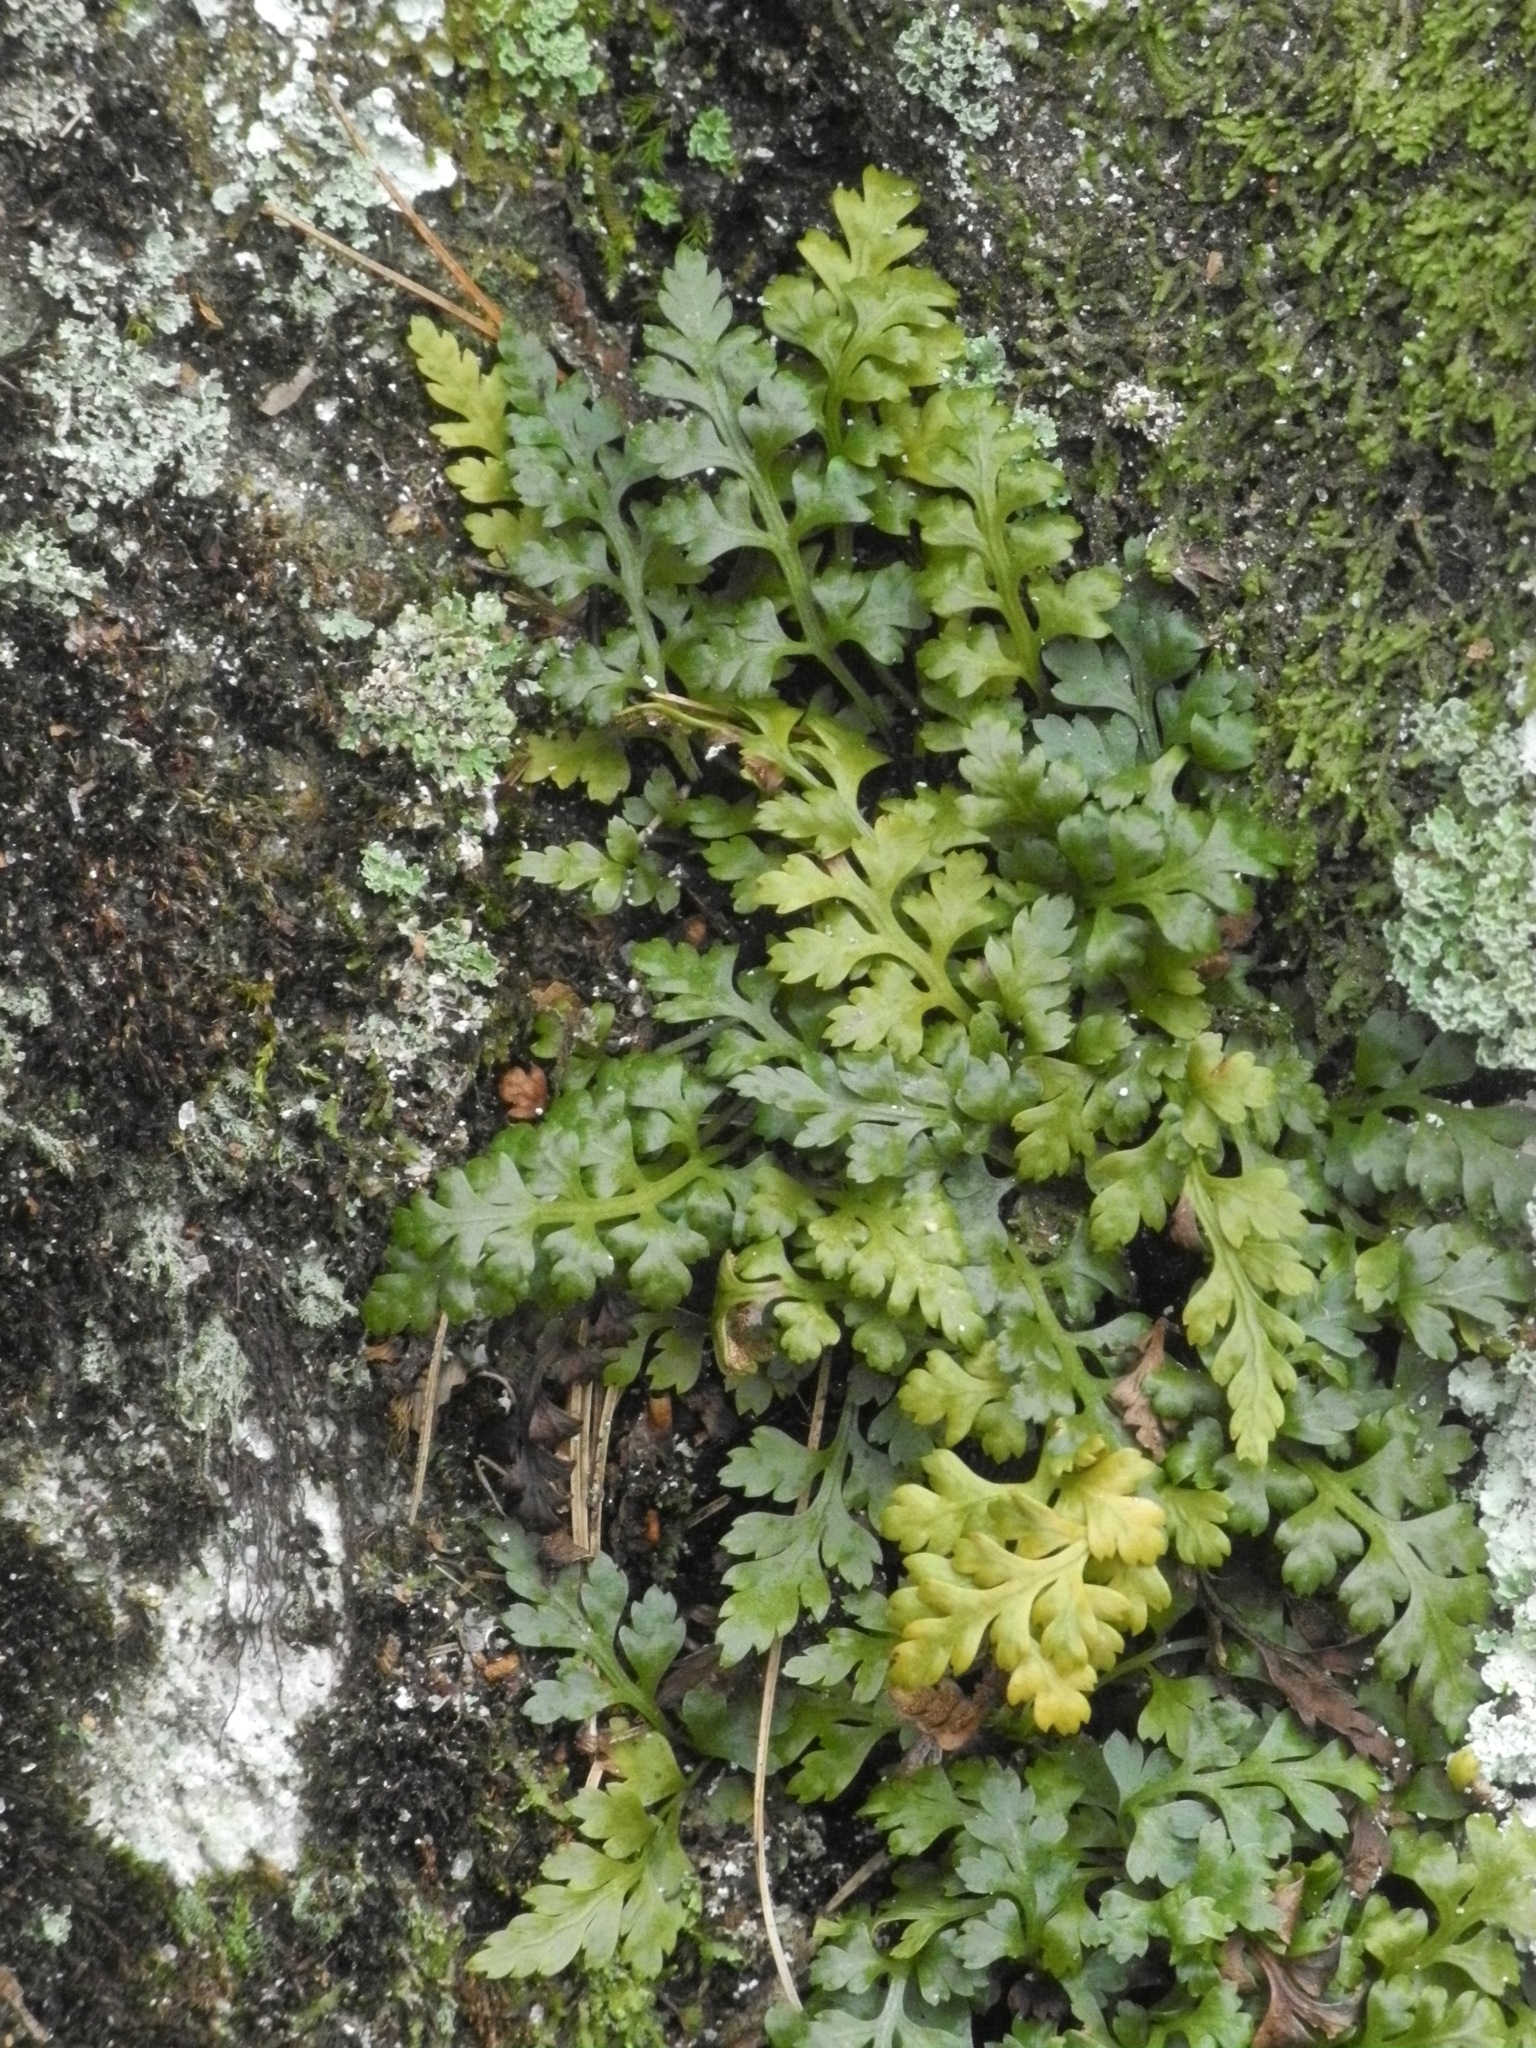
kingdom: Plantae
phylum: Tracheophyta
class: Polypodiopsida
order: Polypodiales
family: Aspleniaceae
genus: Asplenium
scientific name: Asplenium montanum
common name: Mountain spleenwort
